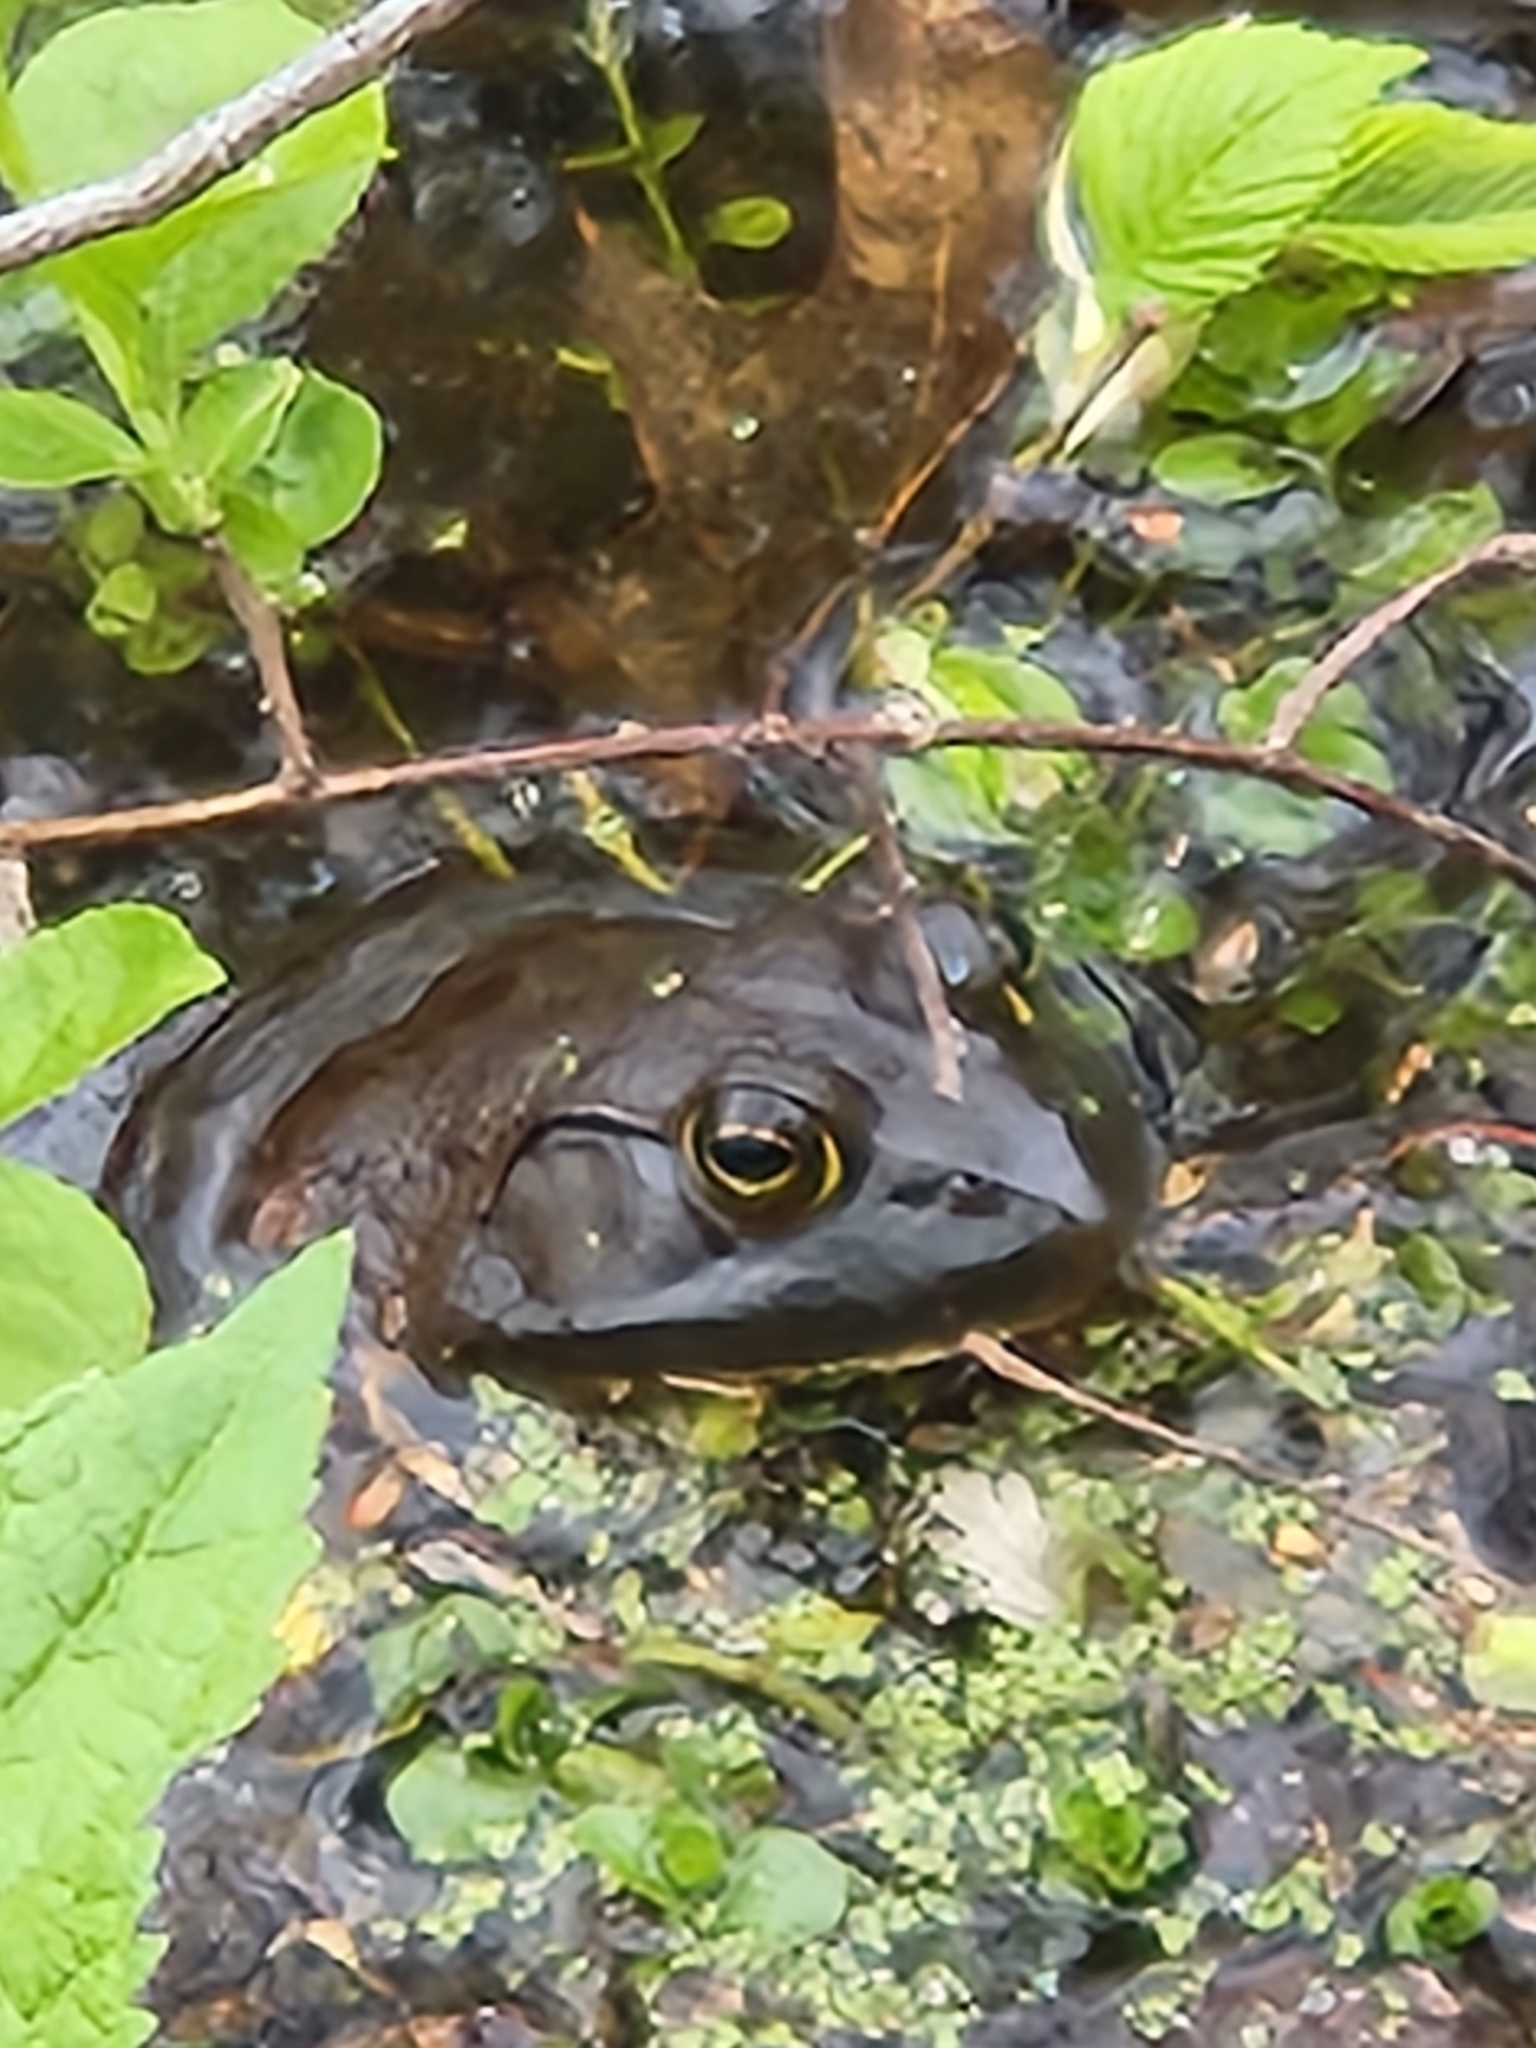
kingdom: Animalia
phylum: Chordata
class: Amphibia
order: Anura
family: Ranidae
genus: Lithobates
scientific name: Lithobates catesbeianus
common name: American bullfrog
